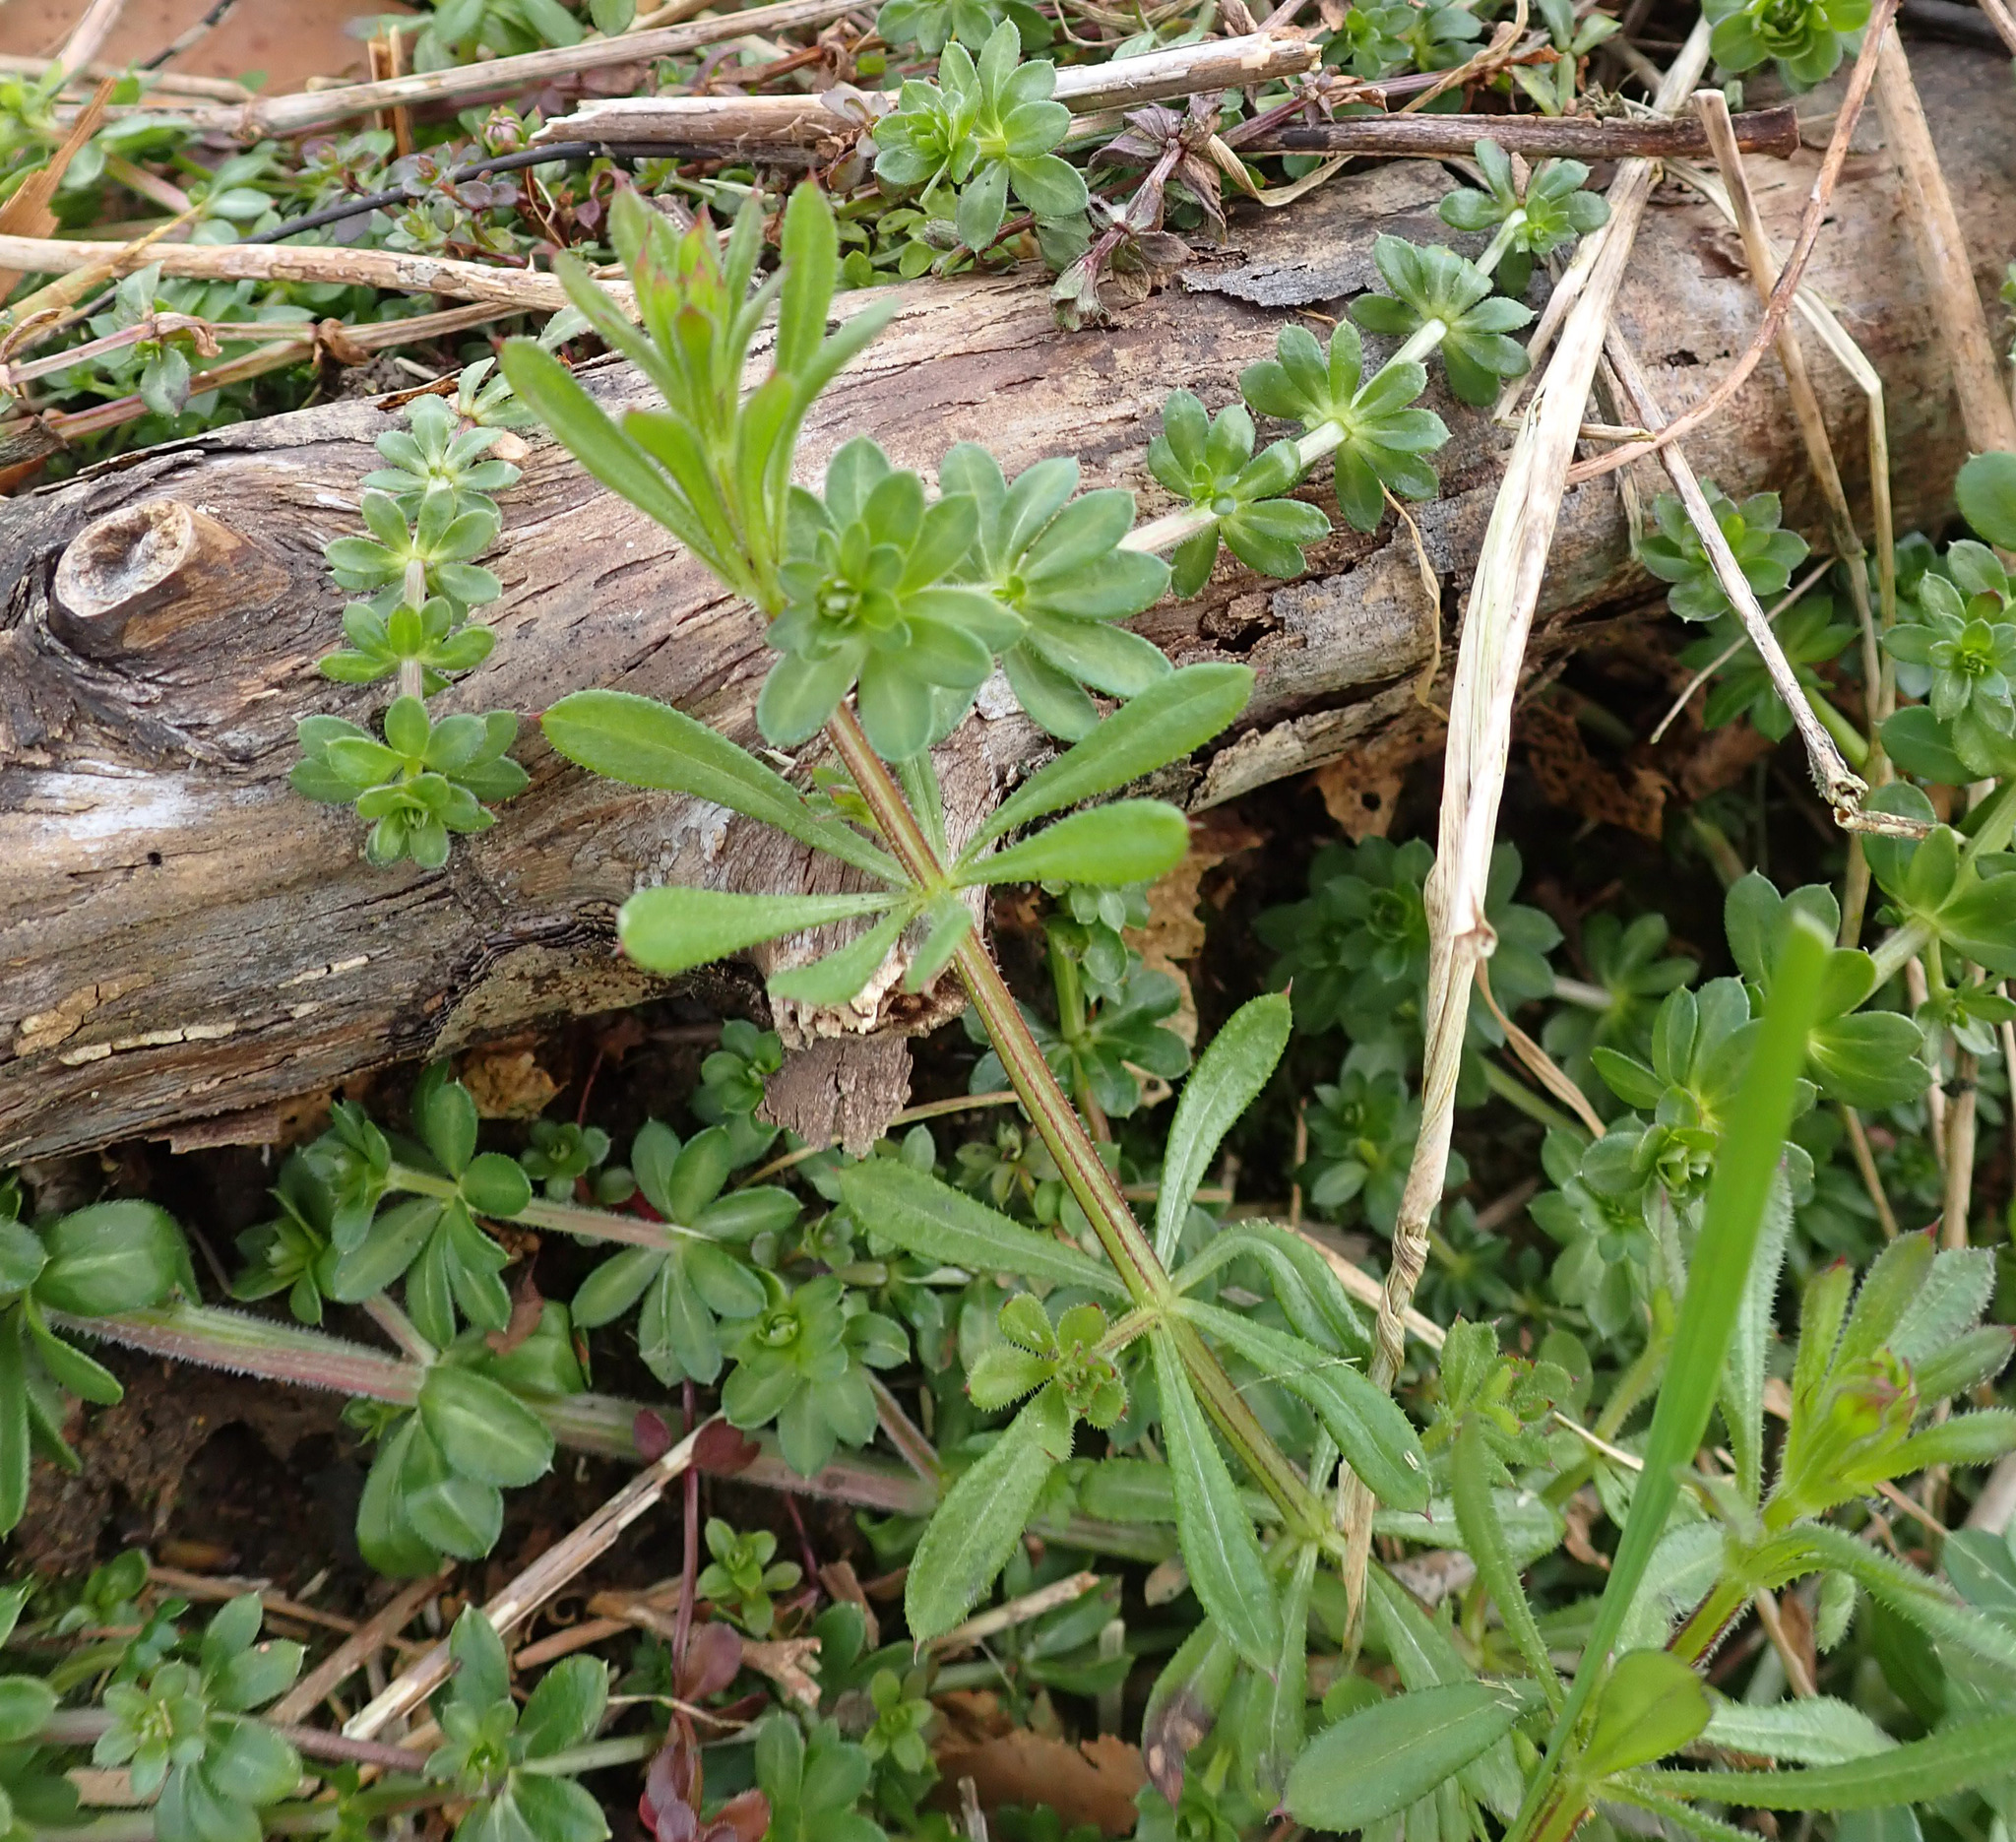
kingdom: Plantae
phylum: Tracheophyta
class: Magnoliopsida
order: Gentianales
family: Rubiaceae
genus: Galium
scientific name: Galium aparine
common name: Cleavers
